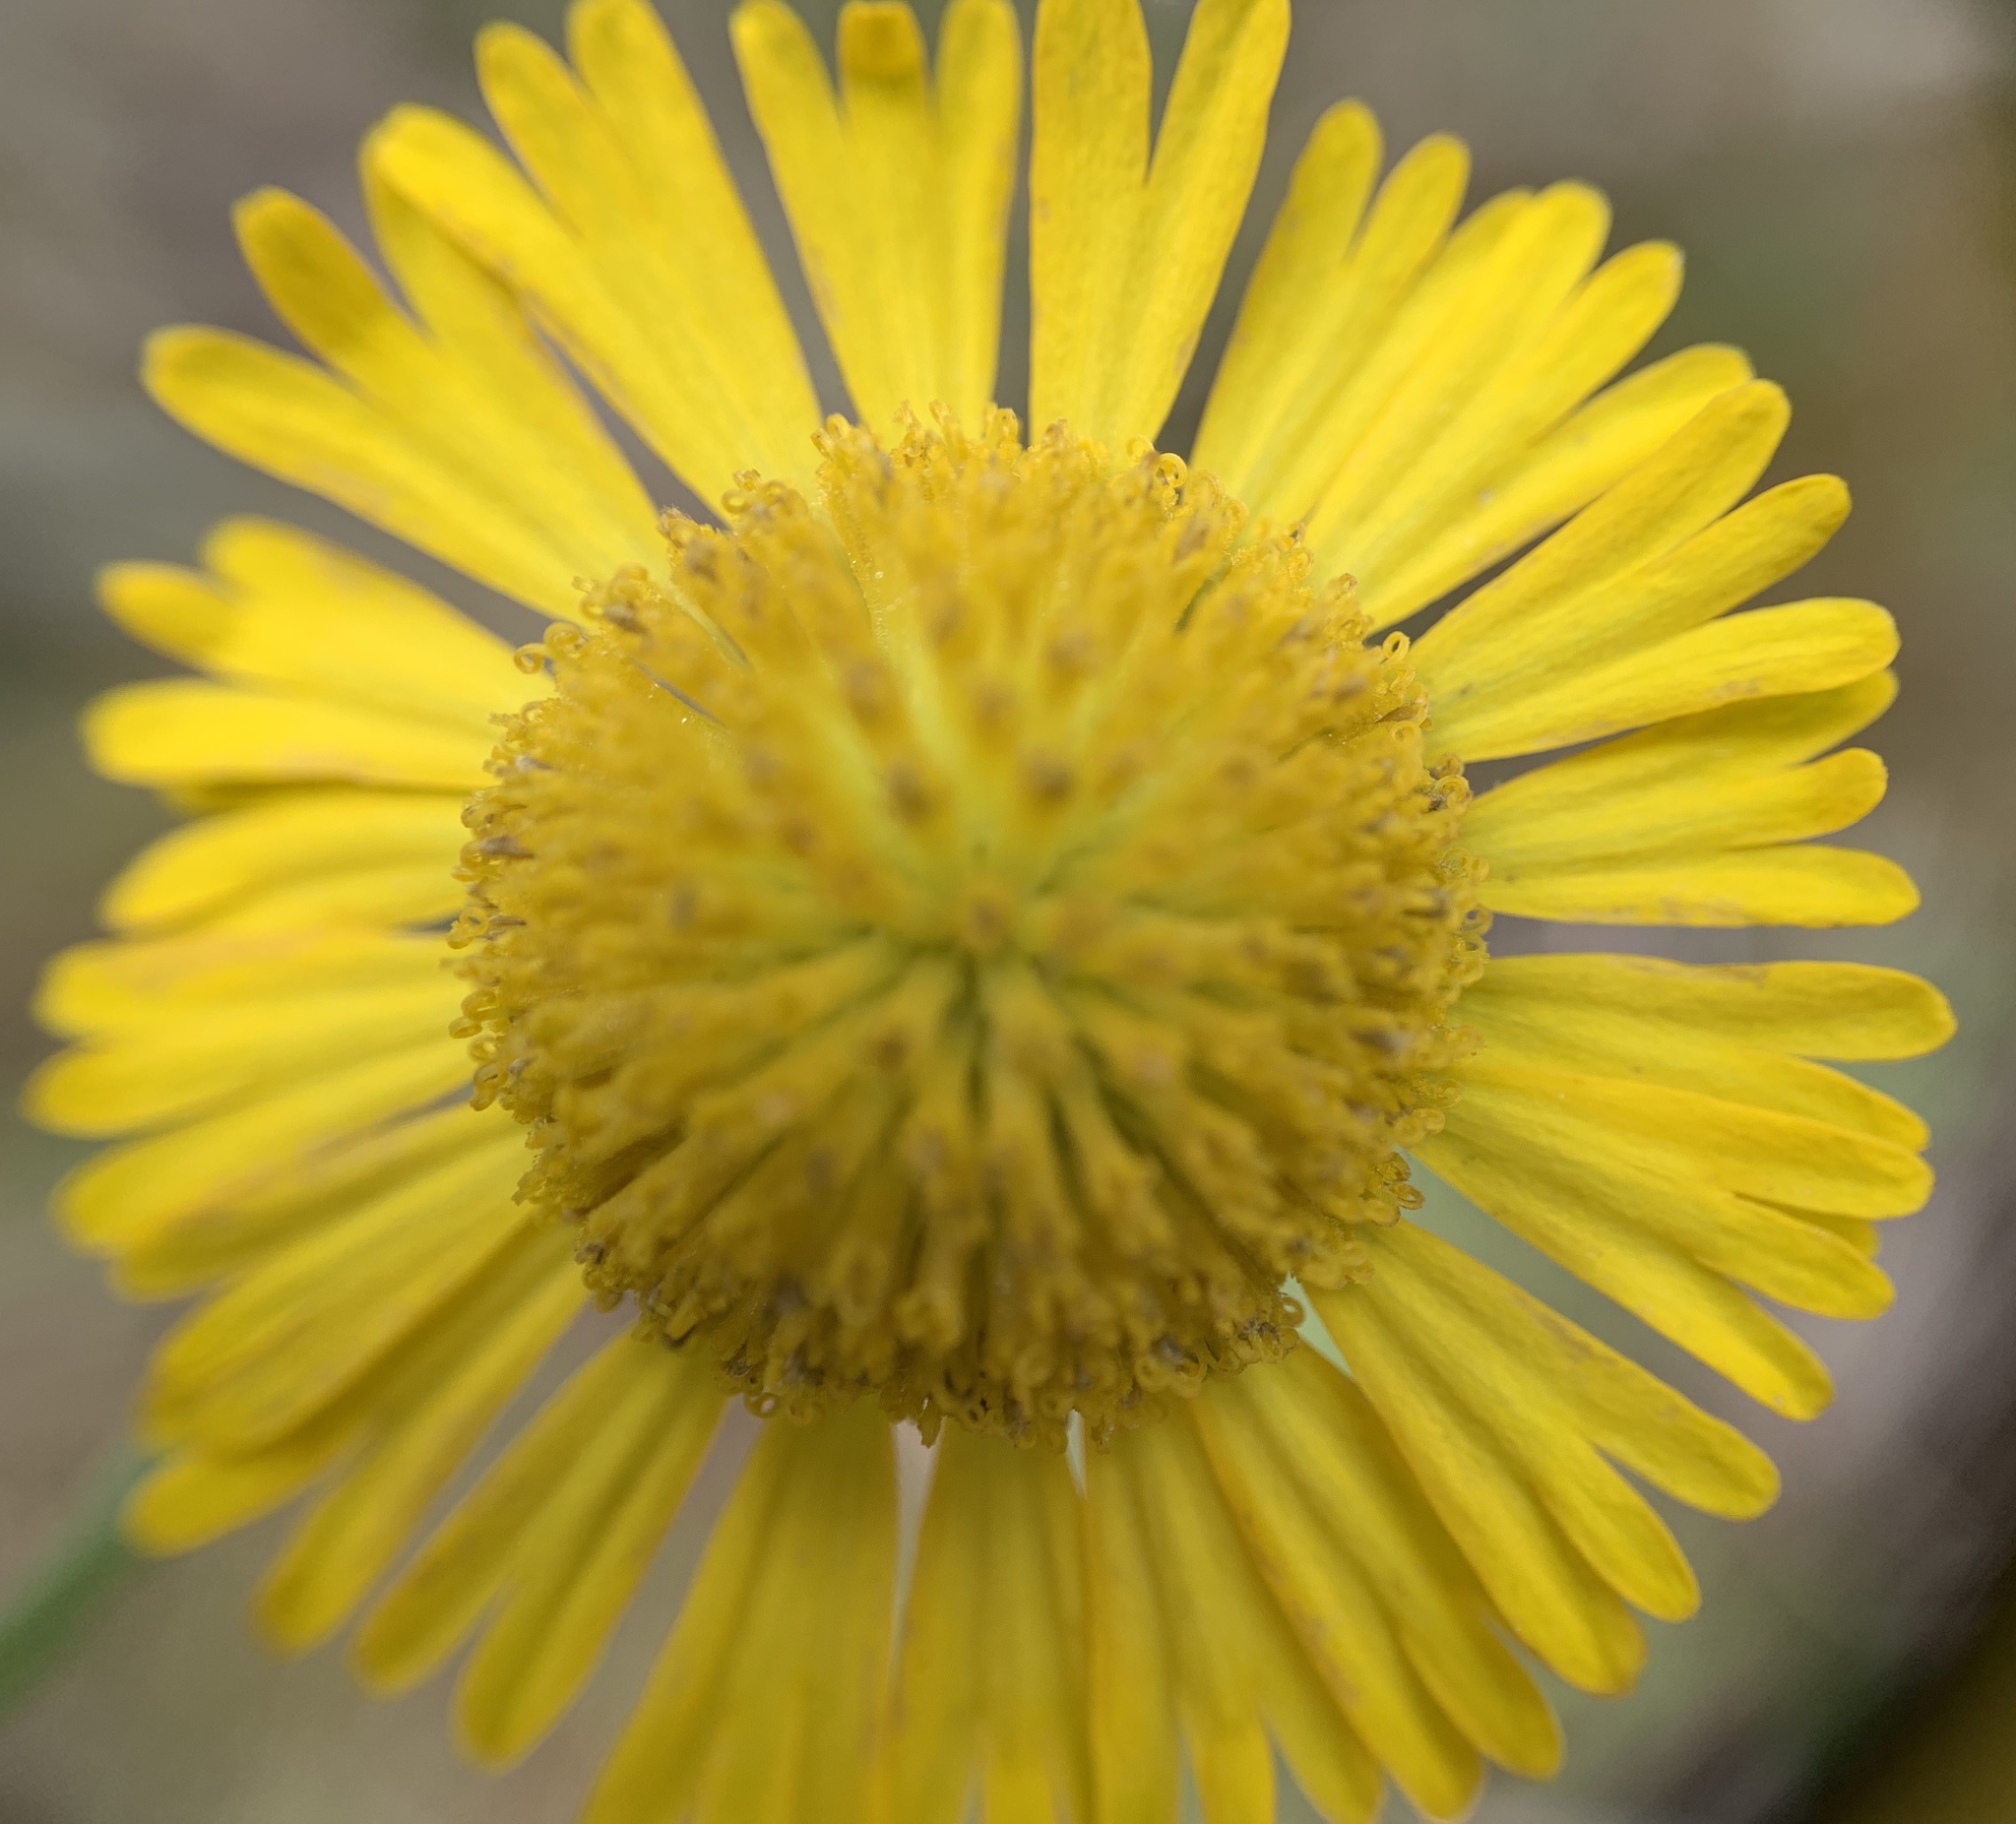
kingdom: Plantae
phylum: Tracheophyta
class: Magnoliopsida
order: Asterales
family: Asteraceae
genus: Helenium
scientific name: Helenium pinnatifidum
